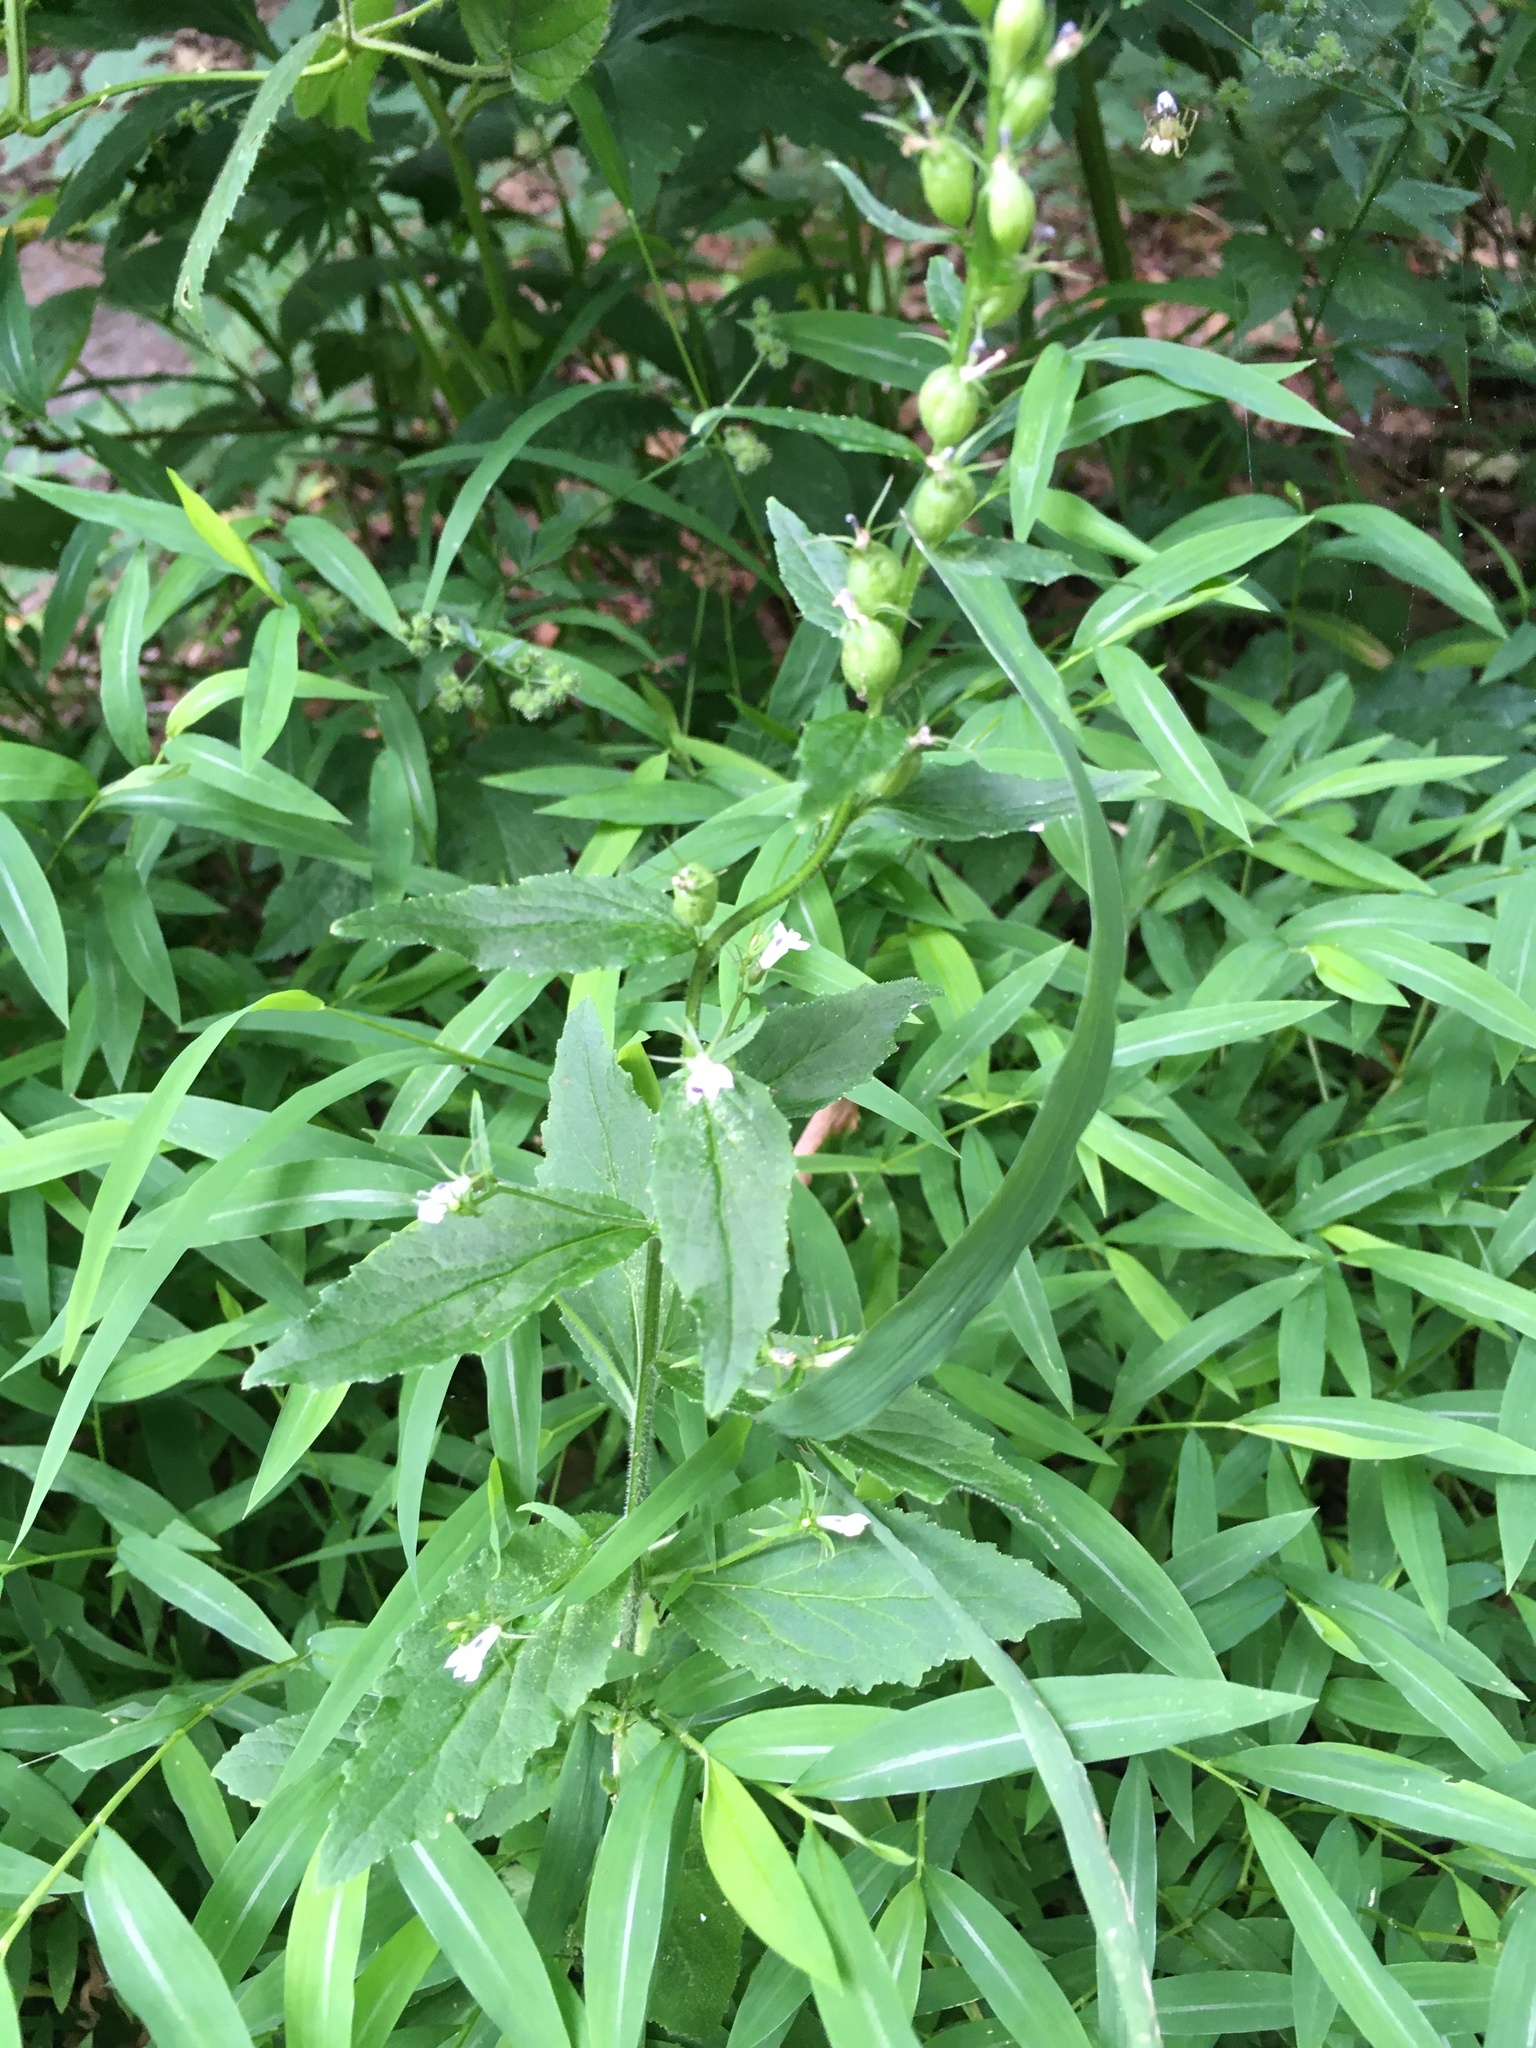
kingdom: Plantae
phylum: Tracheophyta
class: Magnoliopsida
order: Asterales
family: Campanulaceae
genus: Lobelia
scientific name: Lobelia inflata
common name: Indian tobacco
